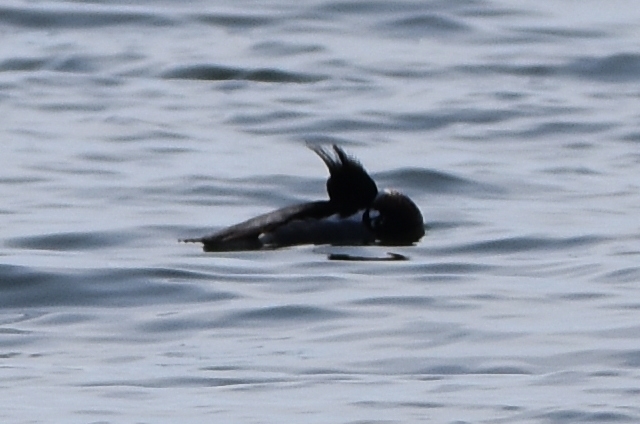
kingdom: Animalia
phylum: Chordata
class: Aves
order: Anseriformes
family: Anatidae
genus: Mergus
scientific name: Mergus serrator
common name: Red-breasted merganser
